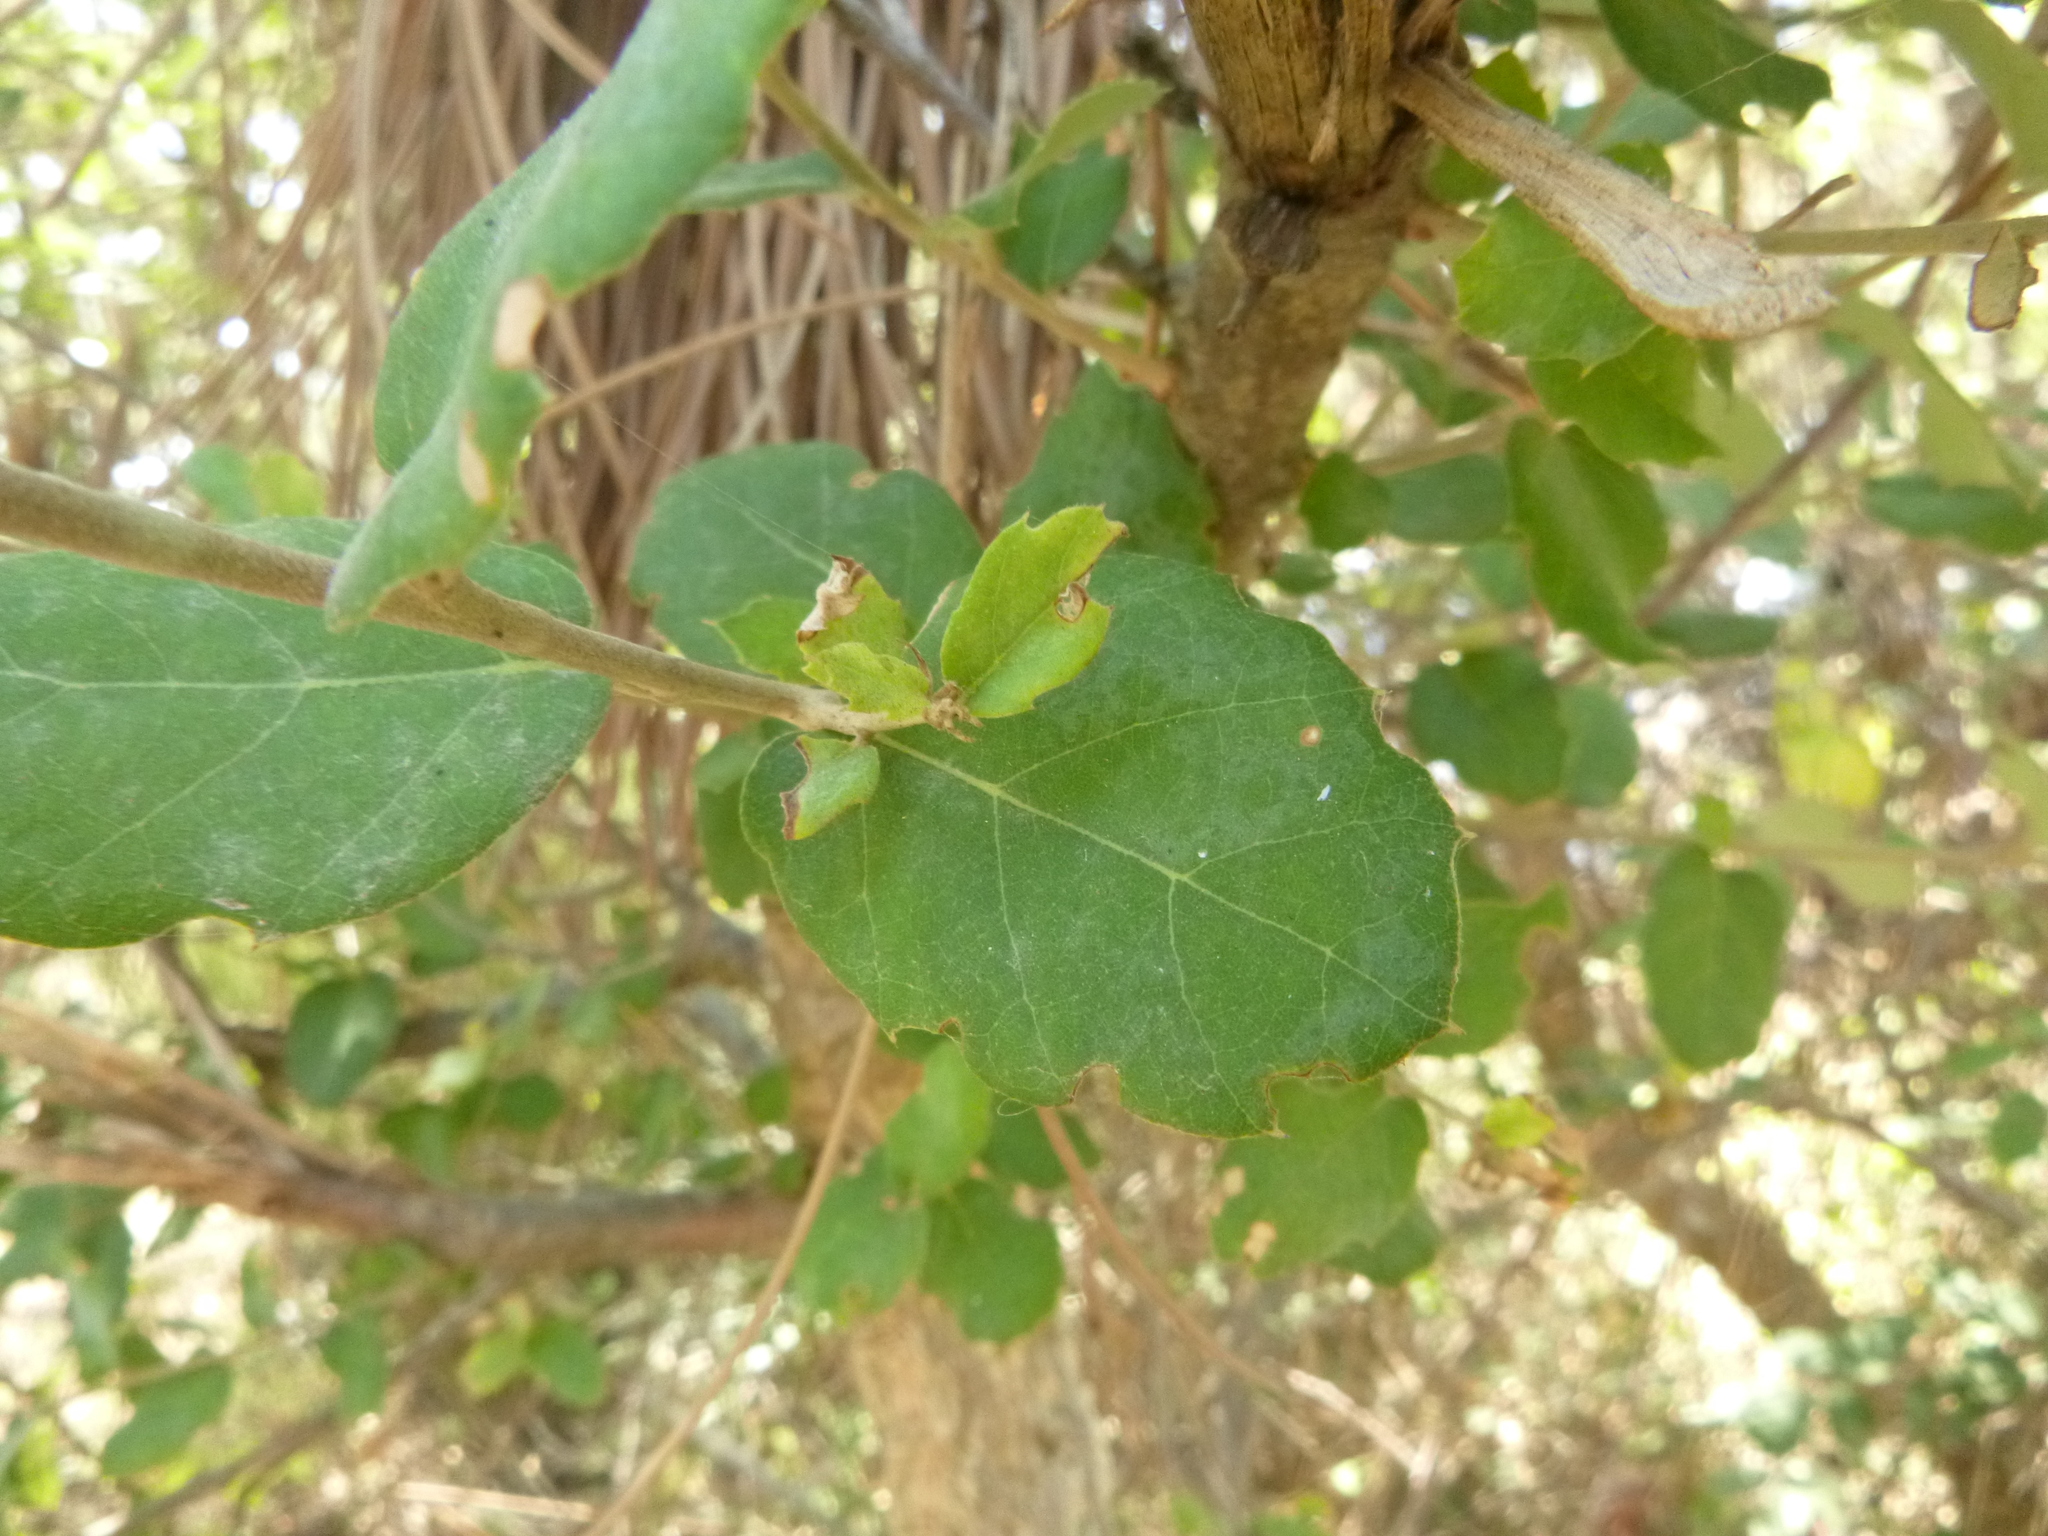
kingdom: Plantae
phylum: Tracheophyta
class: Magnoliopsida
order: Fagales
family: Fagaceae
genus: Quercus
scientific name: Quercus suber
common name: Cork oak
